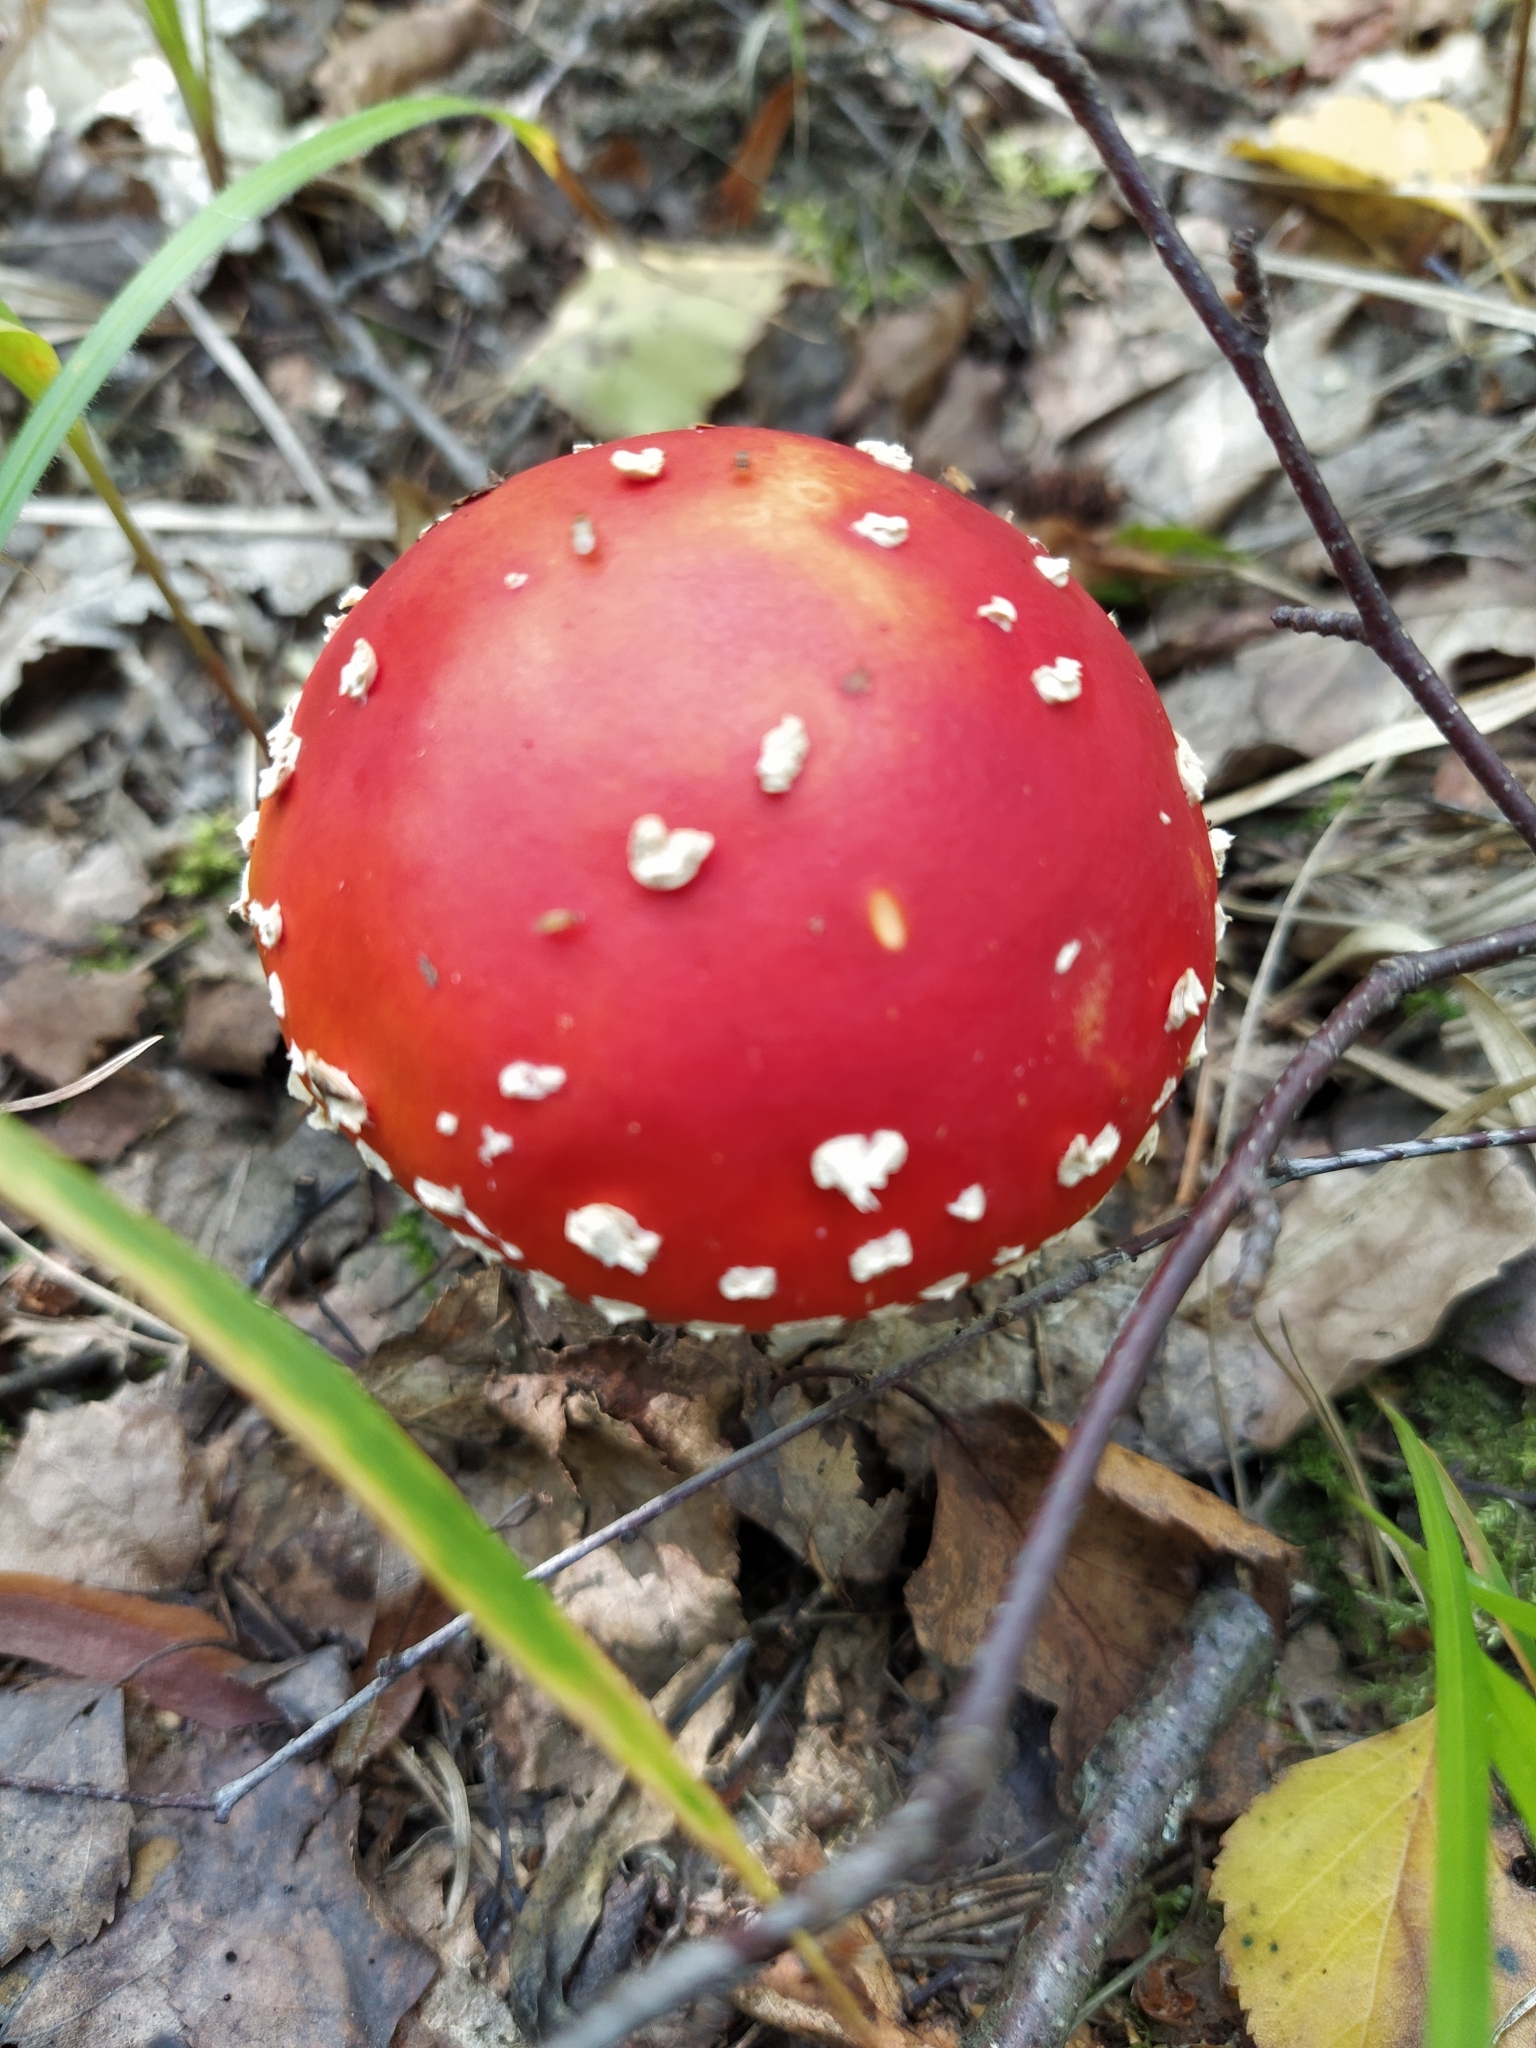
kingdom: Fungi
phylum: Basidiomycota
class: Agaricomycetes
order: Agaricales
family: Amanitaceae
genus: Amanita
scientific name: Amanita muscaria
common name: Fly agaric
